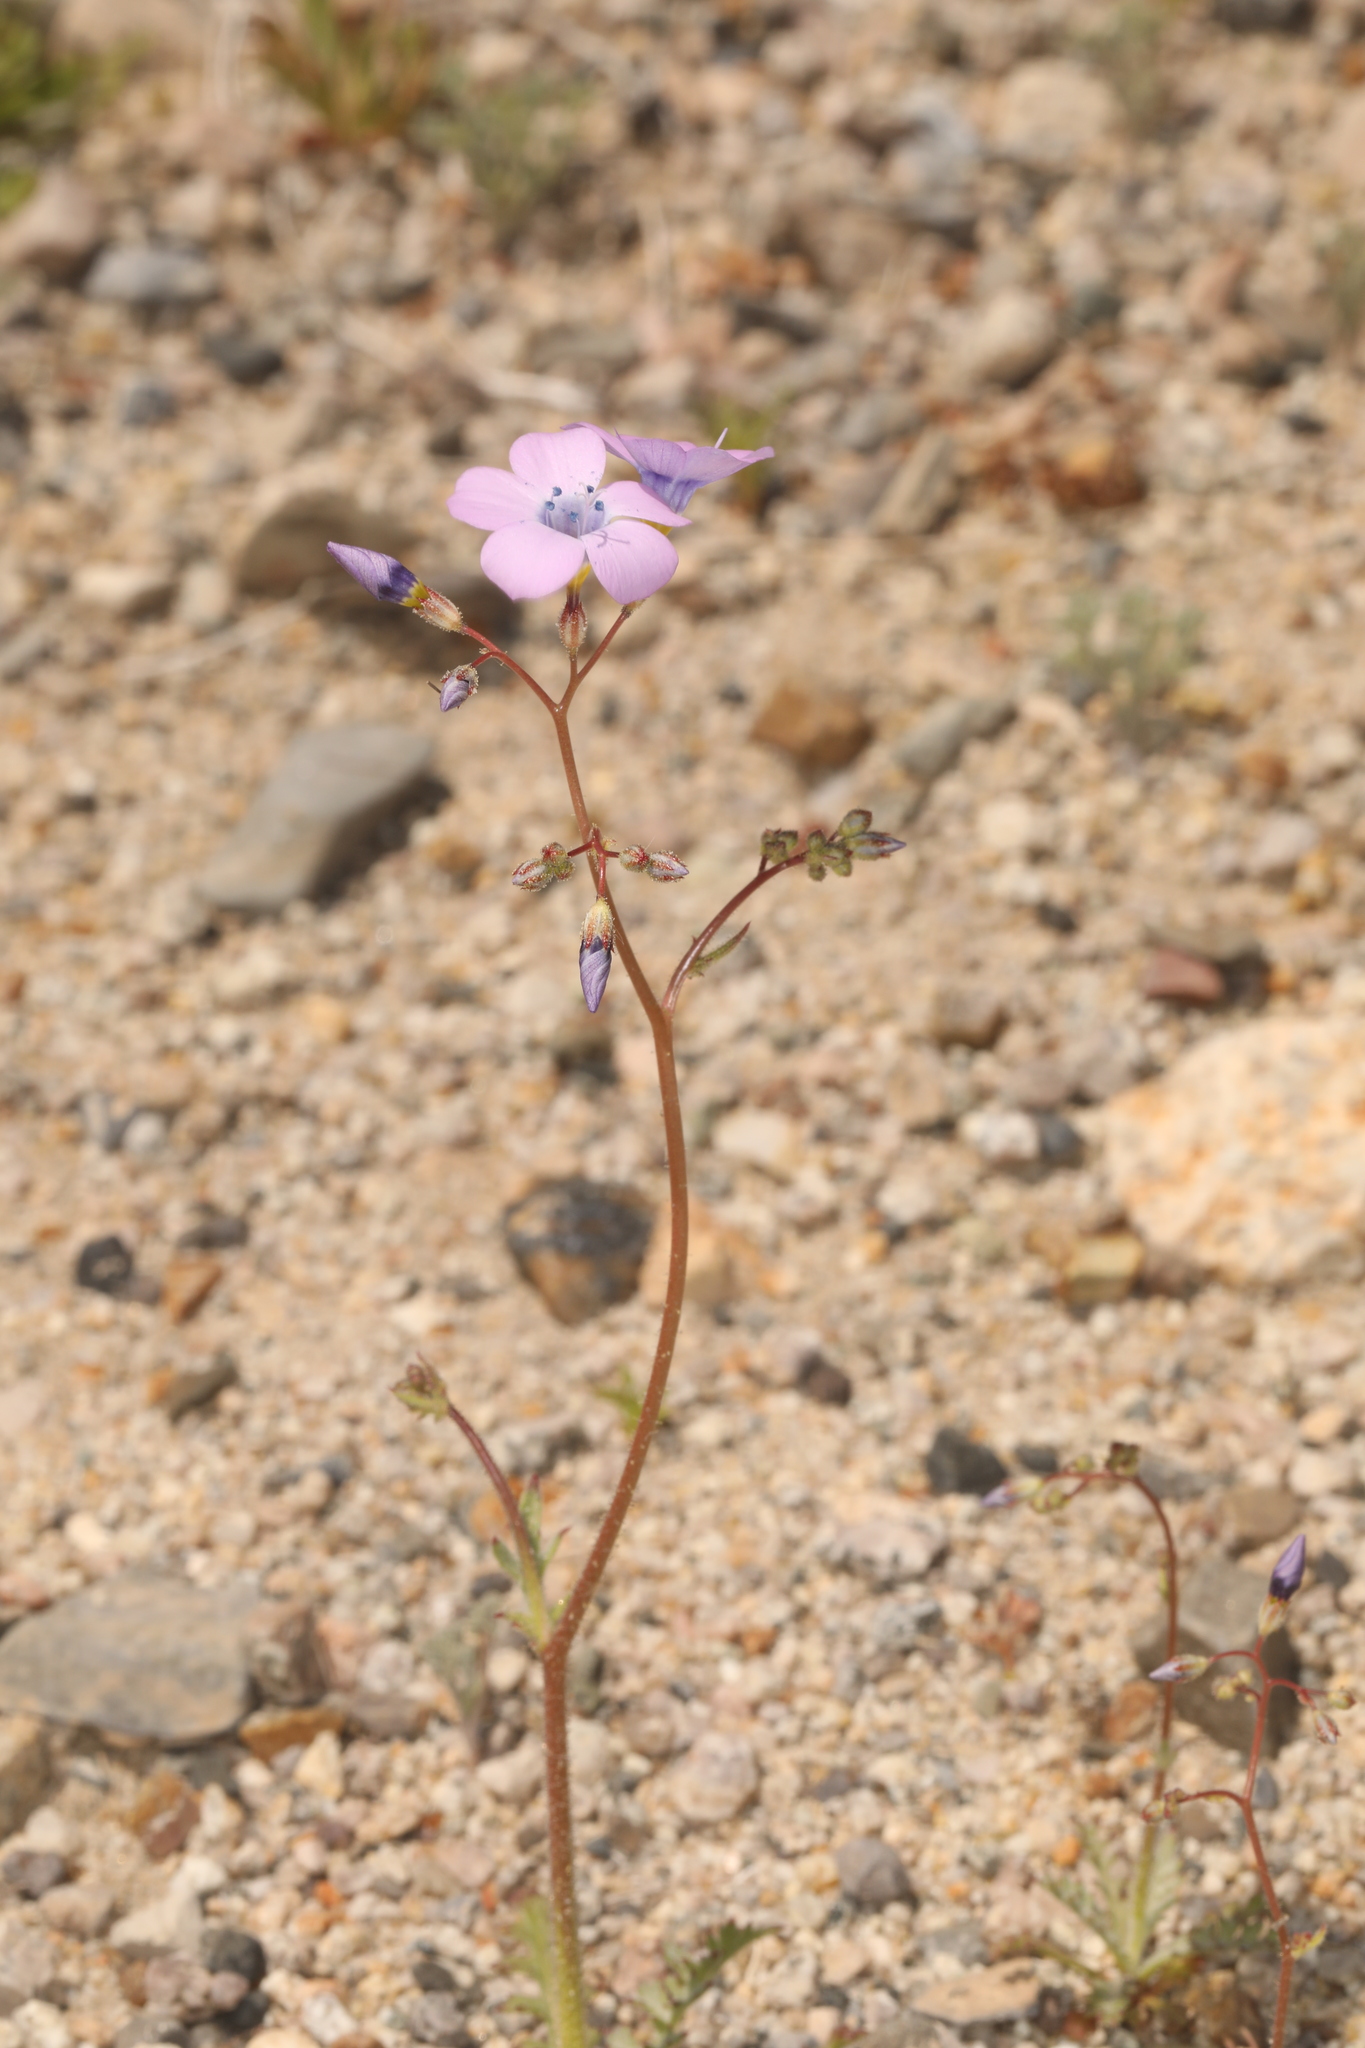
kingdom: Plantae
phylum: Tracheophyta
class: Magnoliopsida
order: Ericales
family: Polemoniaceae
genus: Gilia
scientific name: Gilia cana
